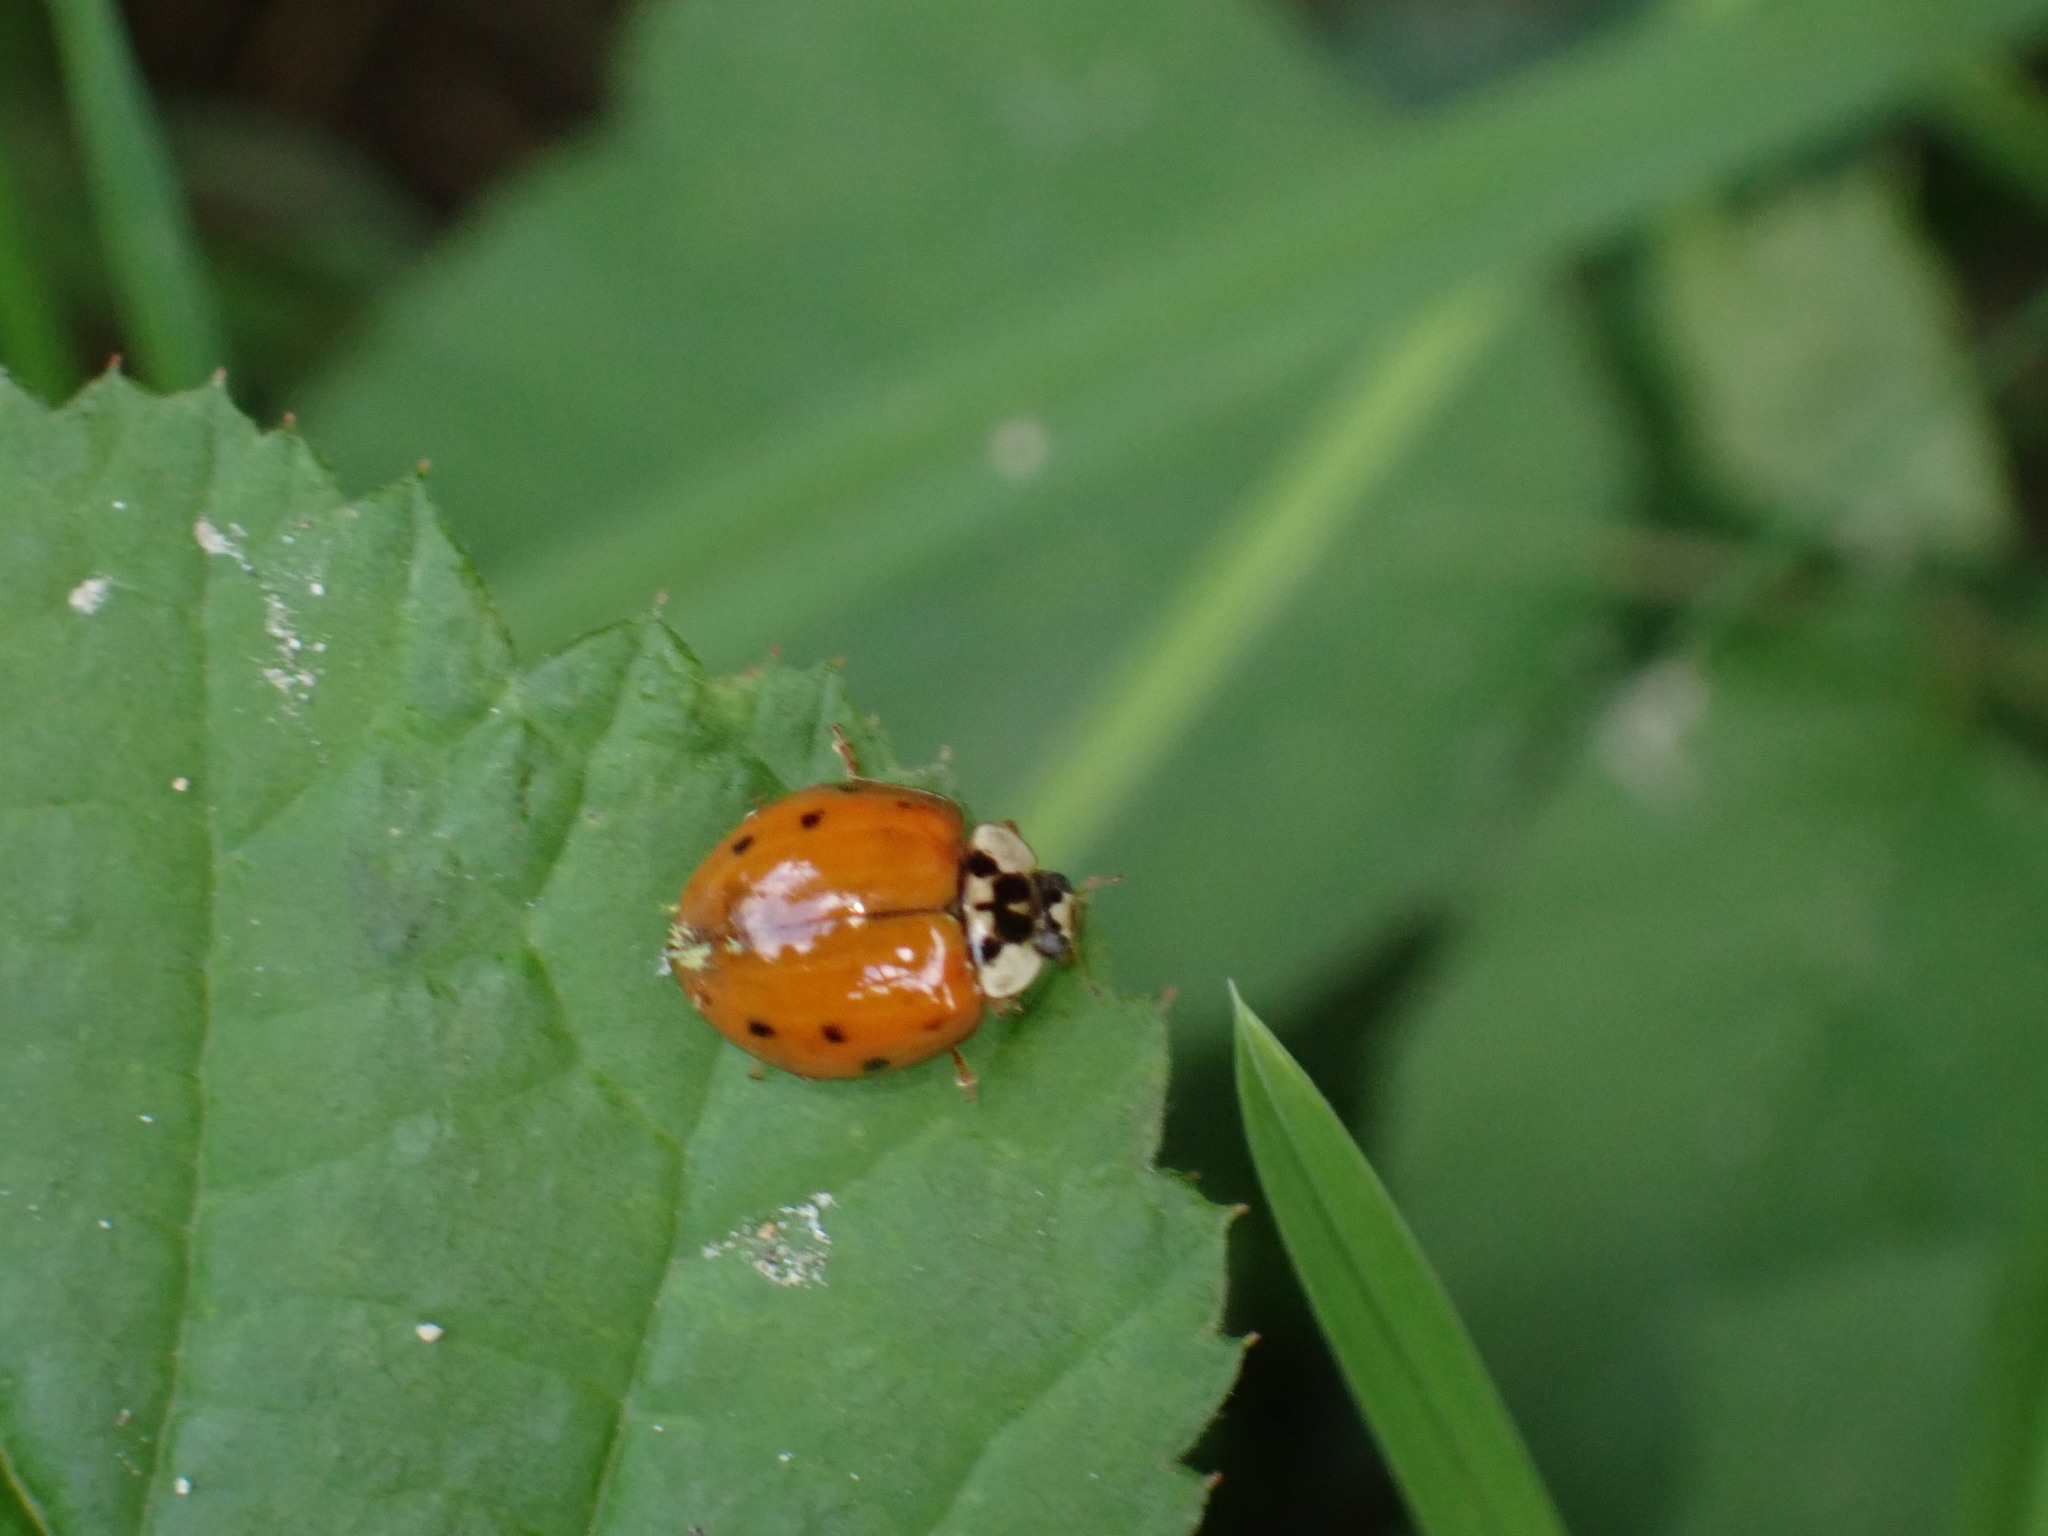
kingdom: Animalia
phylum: Arthropoda
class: Insecta
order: Coleoptera
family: Coccinellidae
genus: Harmonia
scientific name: Harmonia axyridis
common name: Harlequin ladybird
